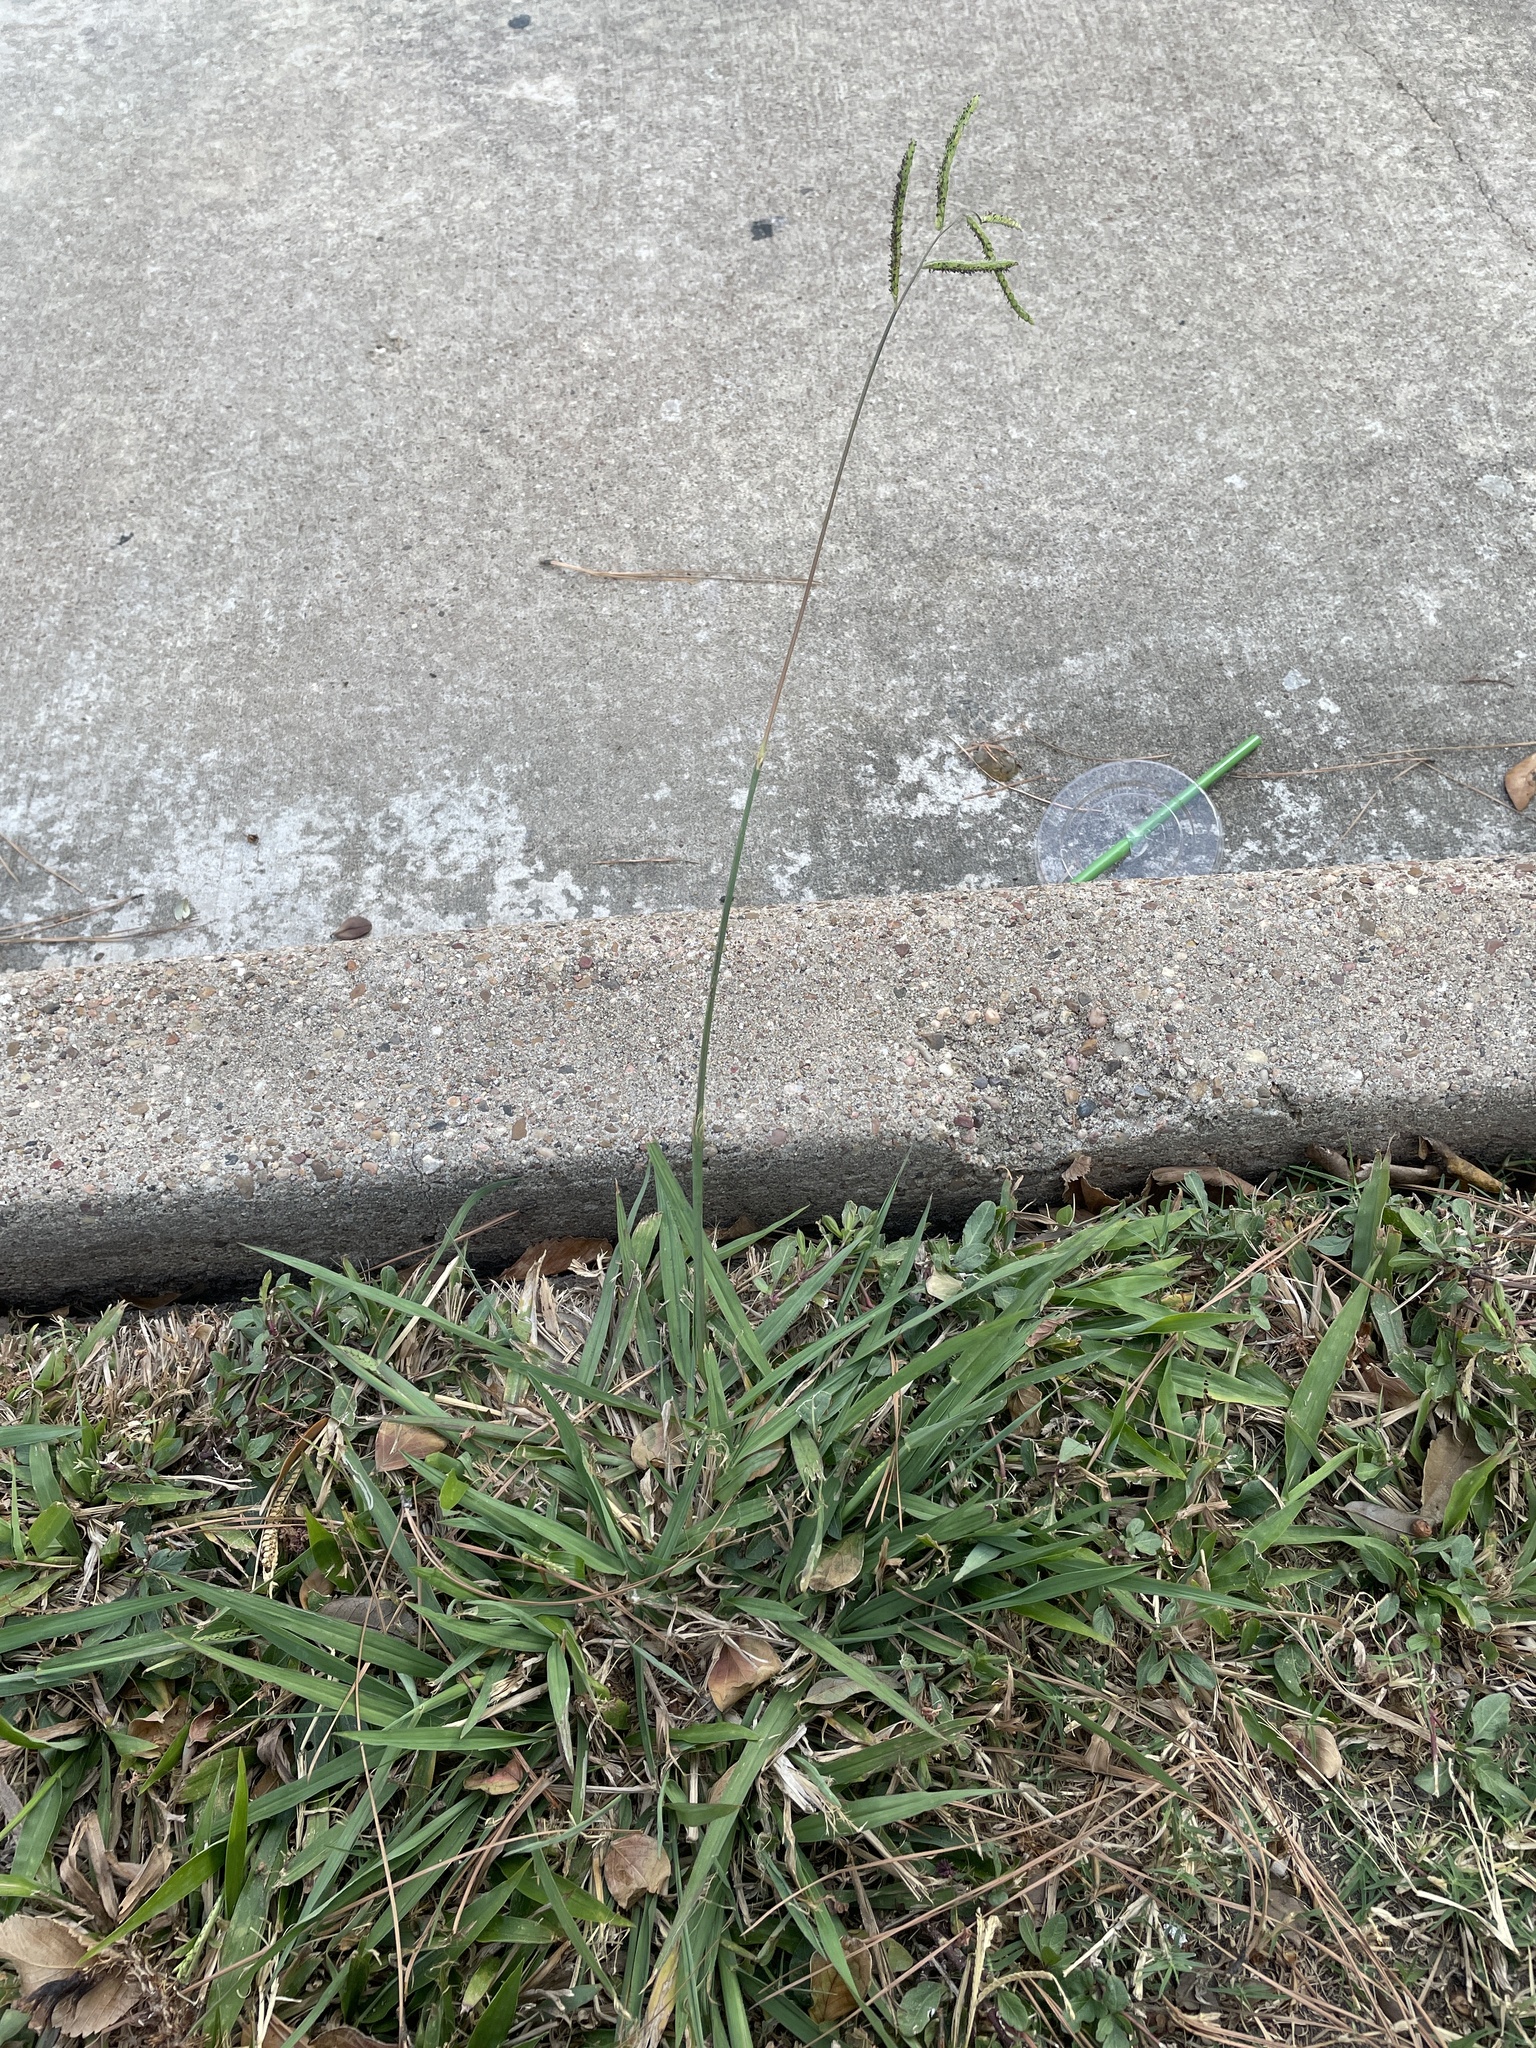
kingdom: Plantae
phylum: Tracheophyta
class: Liliopsida
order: Poales
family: Poaceae
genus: Paspalum
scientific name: Paspalum dilatatum
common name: Dallisgrass
